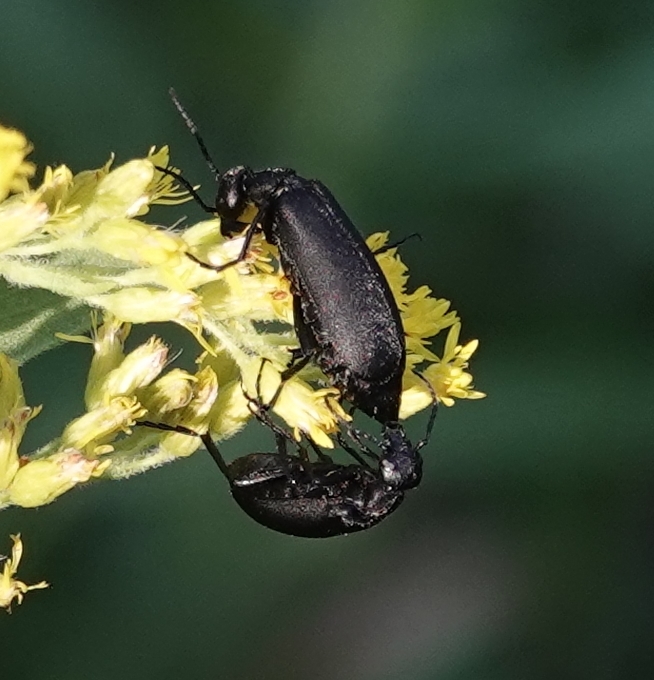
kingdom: Animalia
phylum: Arthropoda
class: Insecta
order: Coleoptera
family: Meloidae
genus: Epicauta
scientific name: Epicauta pensylvanica
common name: Black blister beetle
